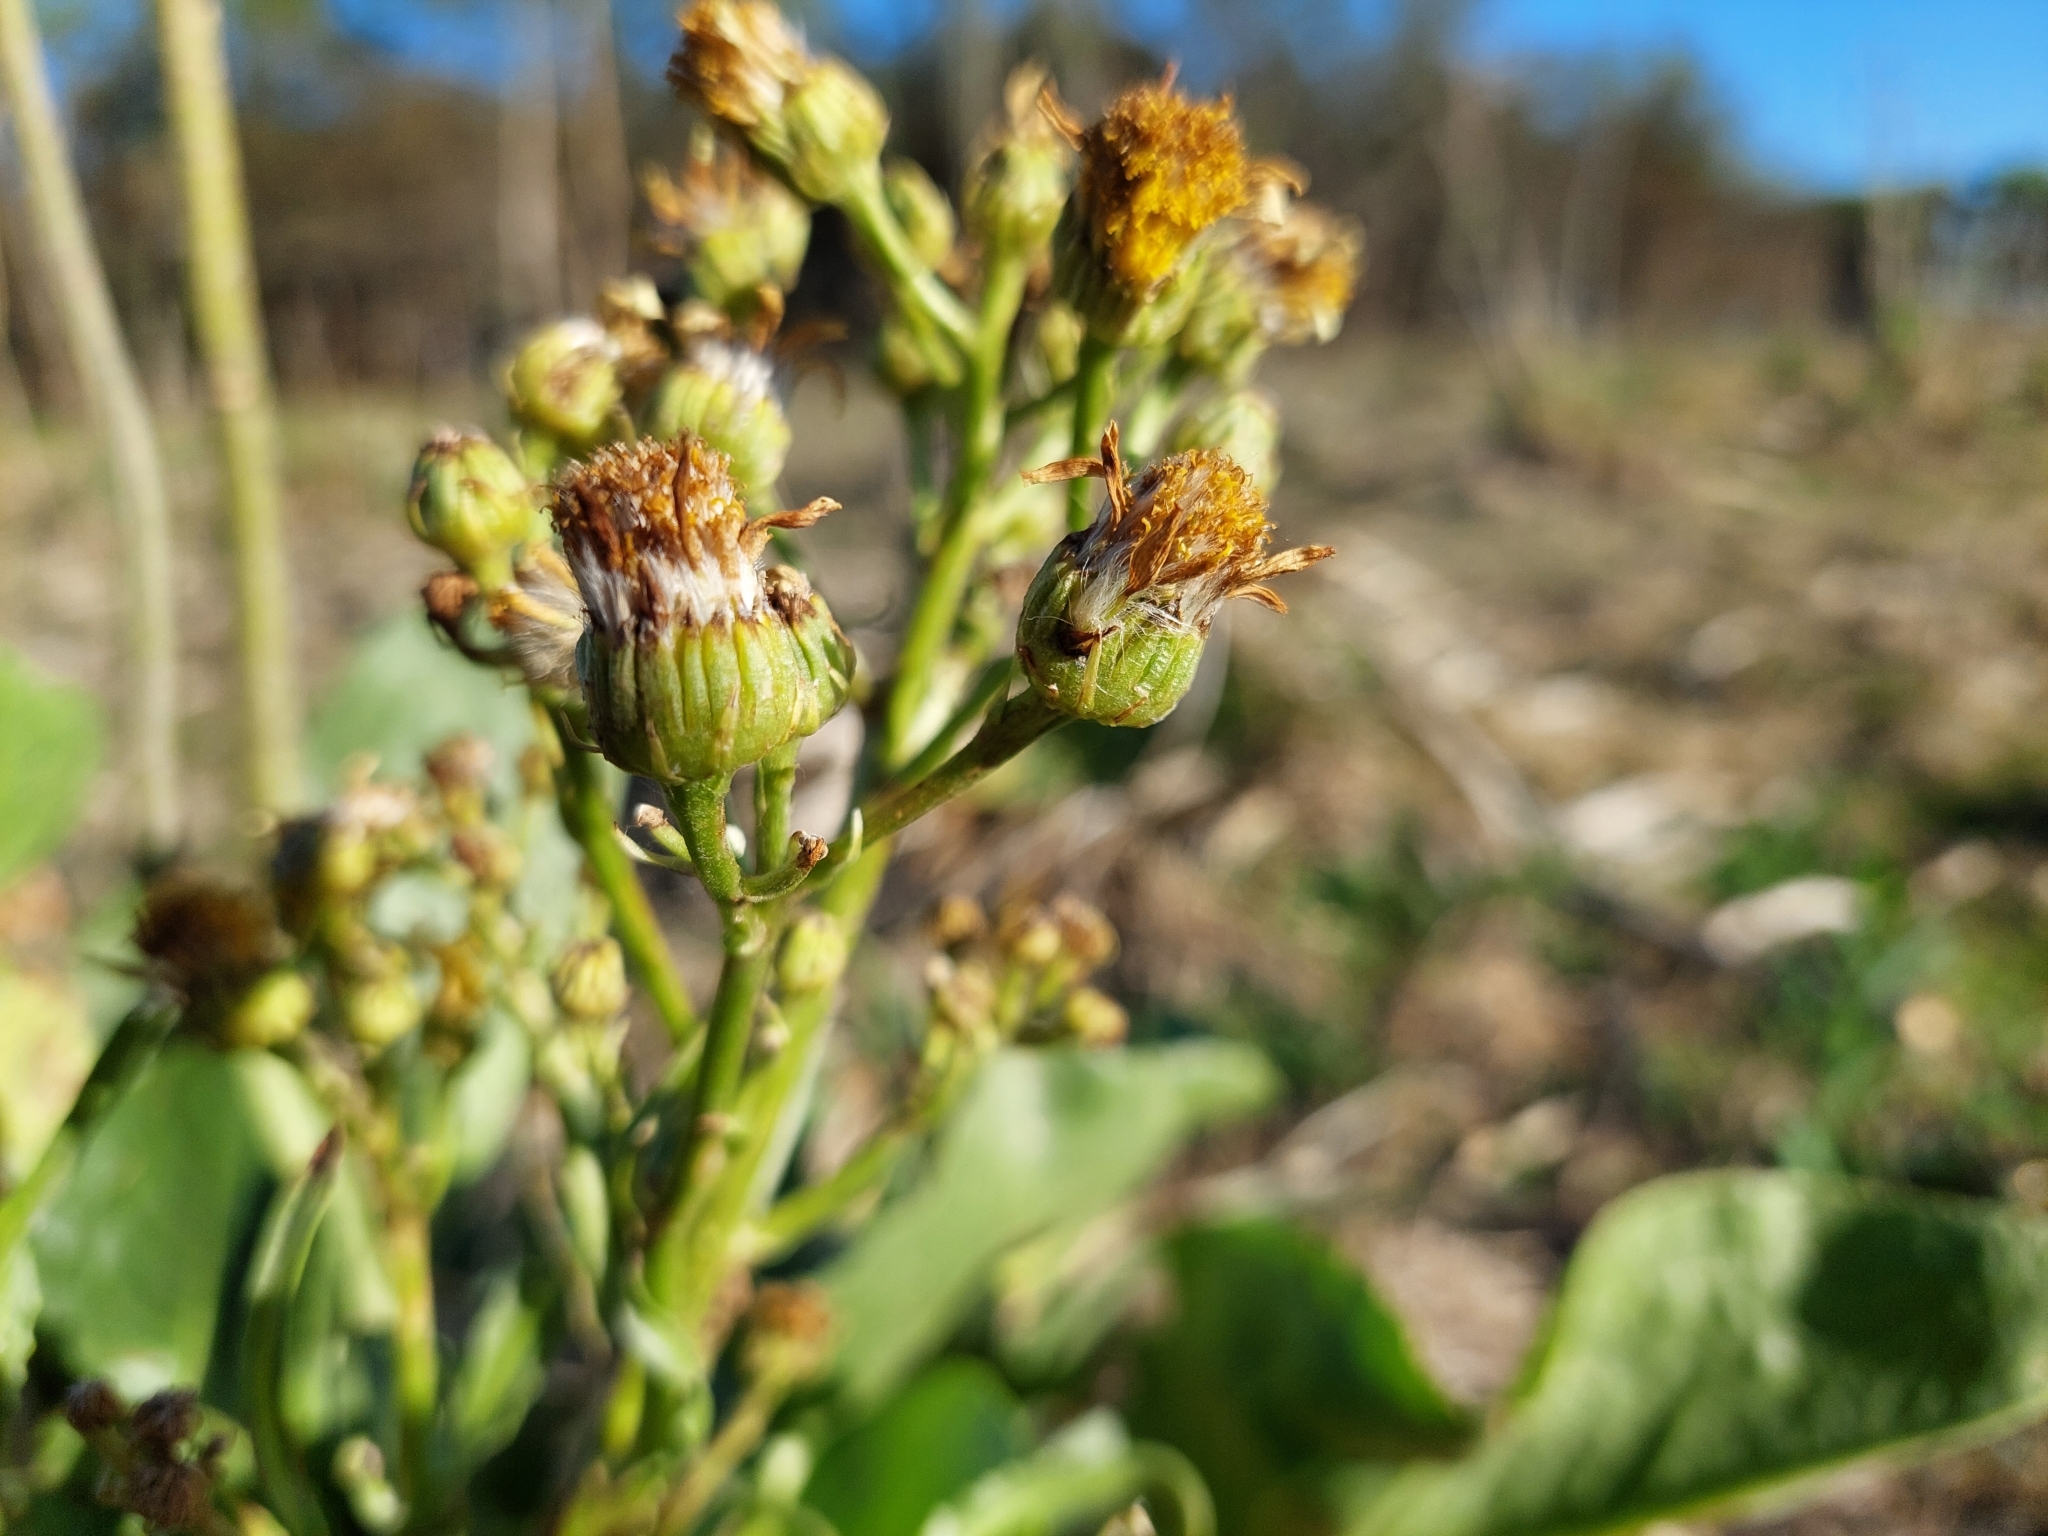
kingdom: Plantae
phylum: Tracheophyta
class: Magnoliopsida
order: Asterales
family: Asteraceae
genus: Senecio
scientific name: Senecio bonariensis
